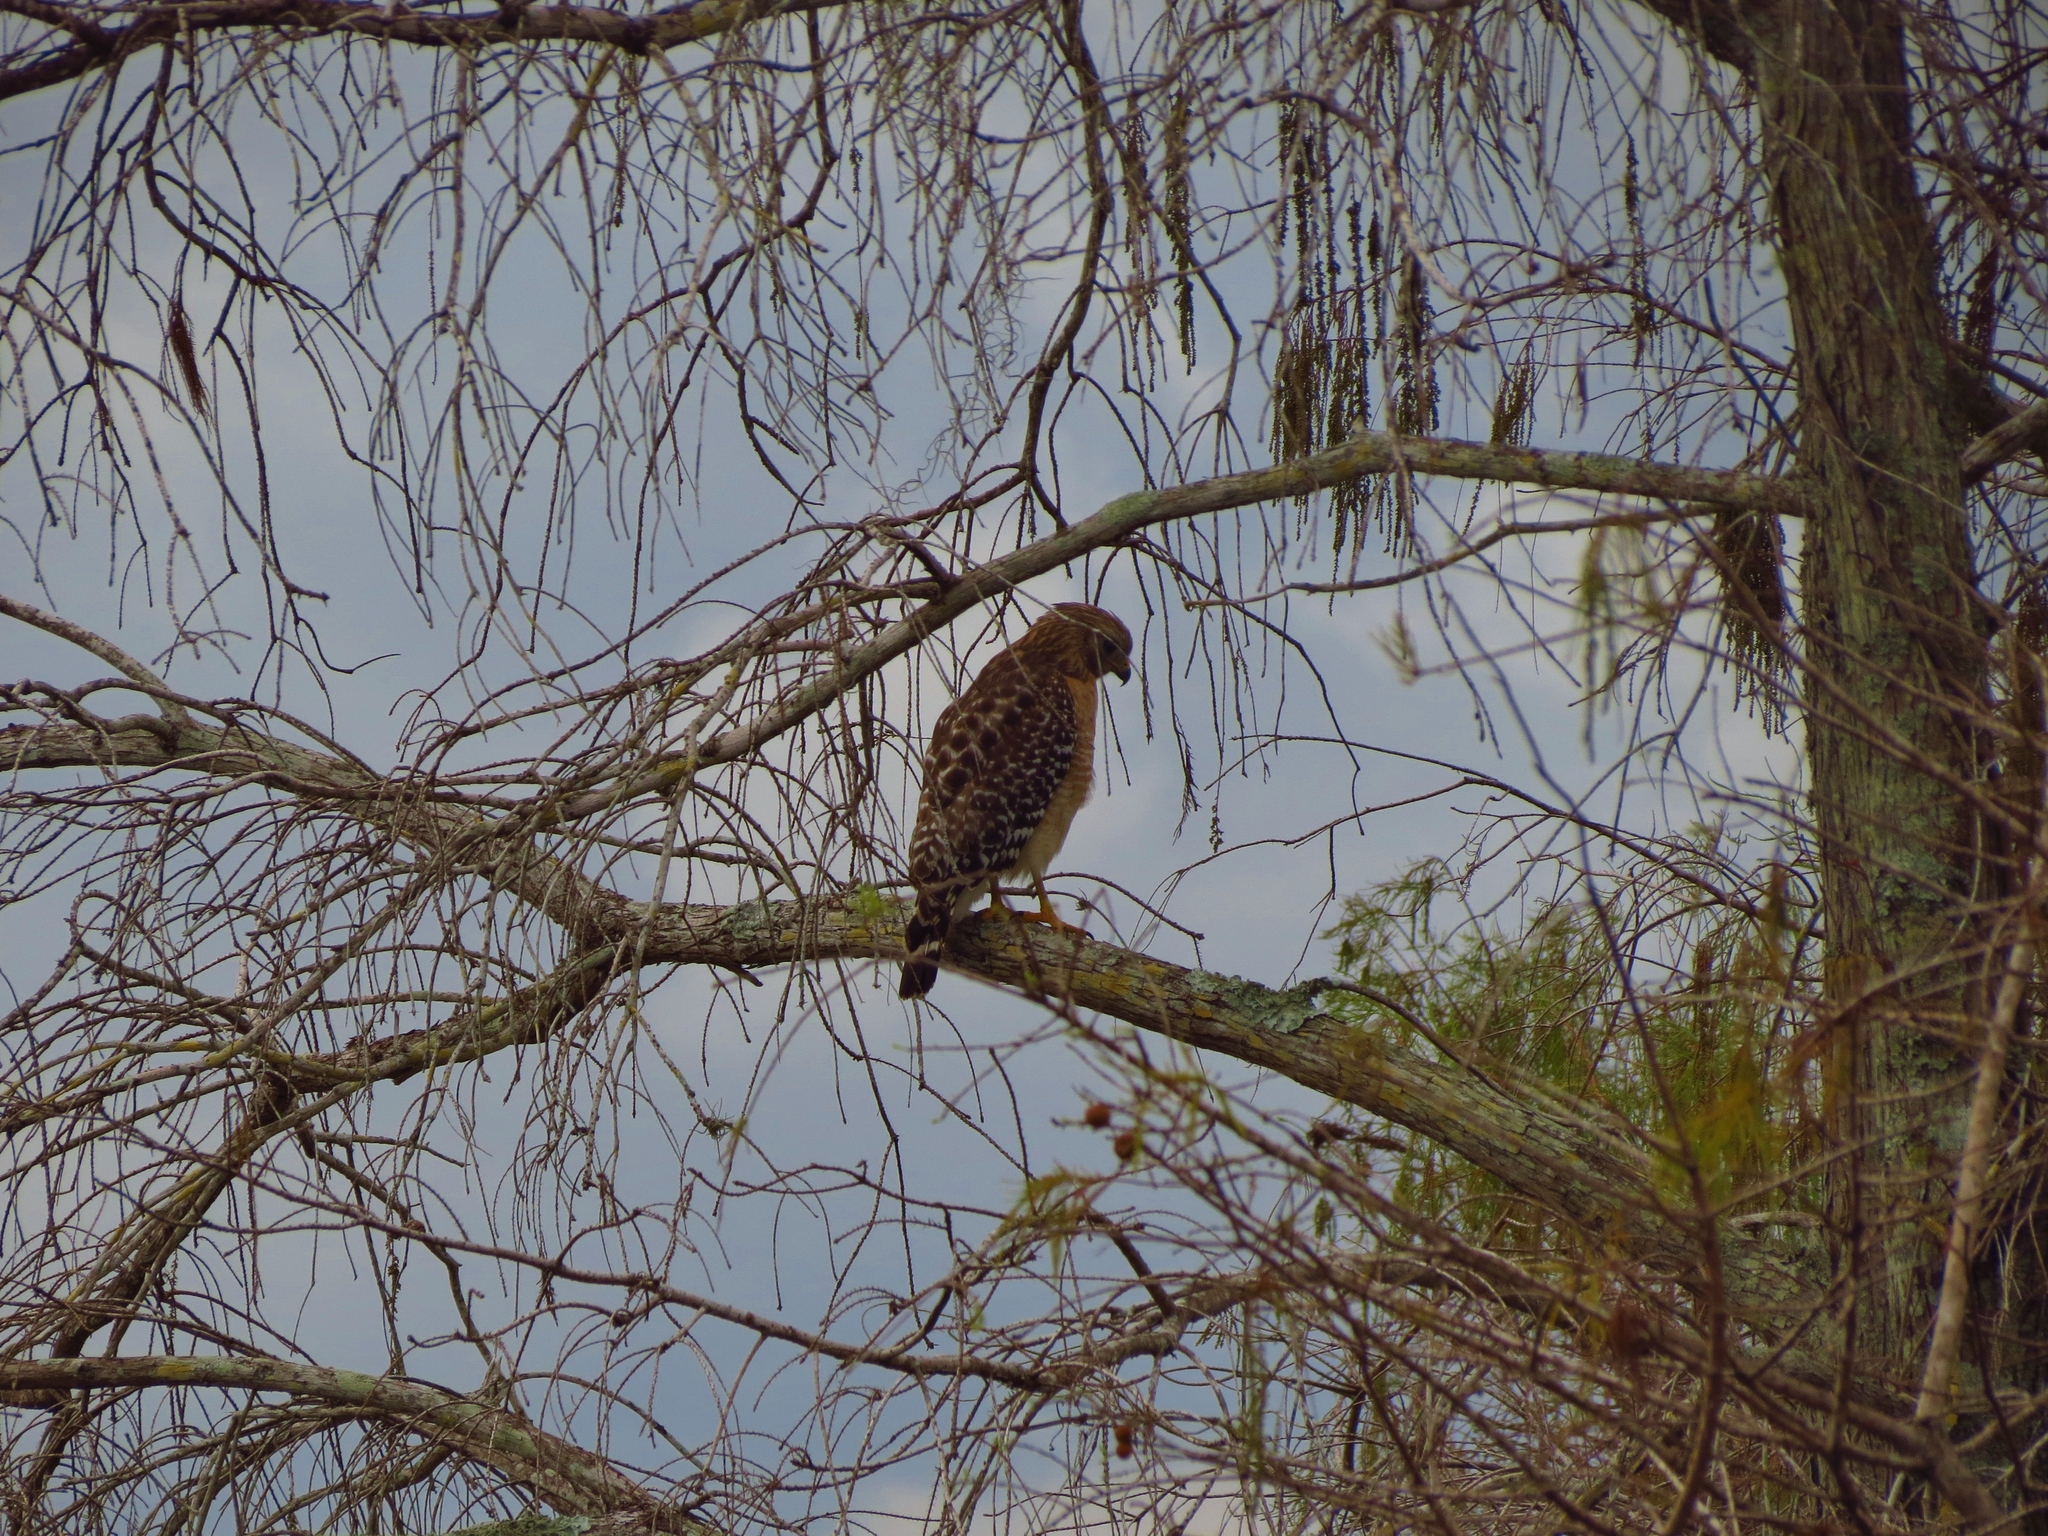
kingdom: Animalia
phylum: Chordata
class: Aves
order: Accipitriformes
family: Accipitridae
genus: Buteo
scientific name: Buteo lineatus
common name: Red-shouldered hawk
